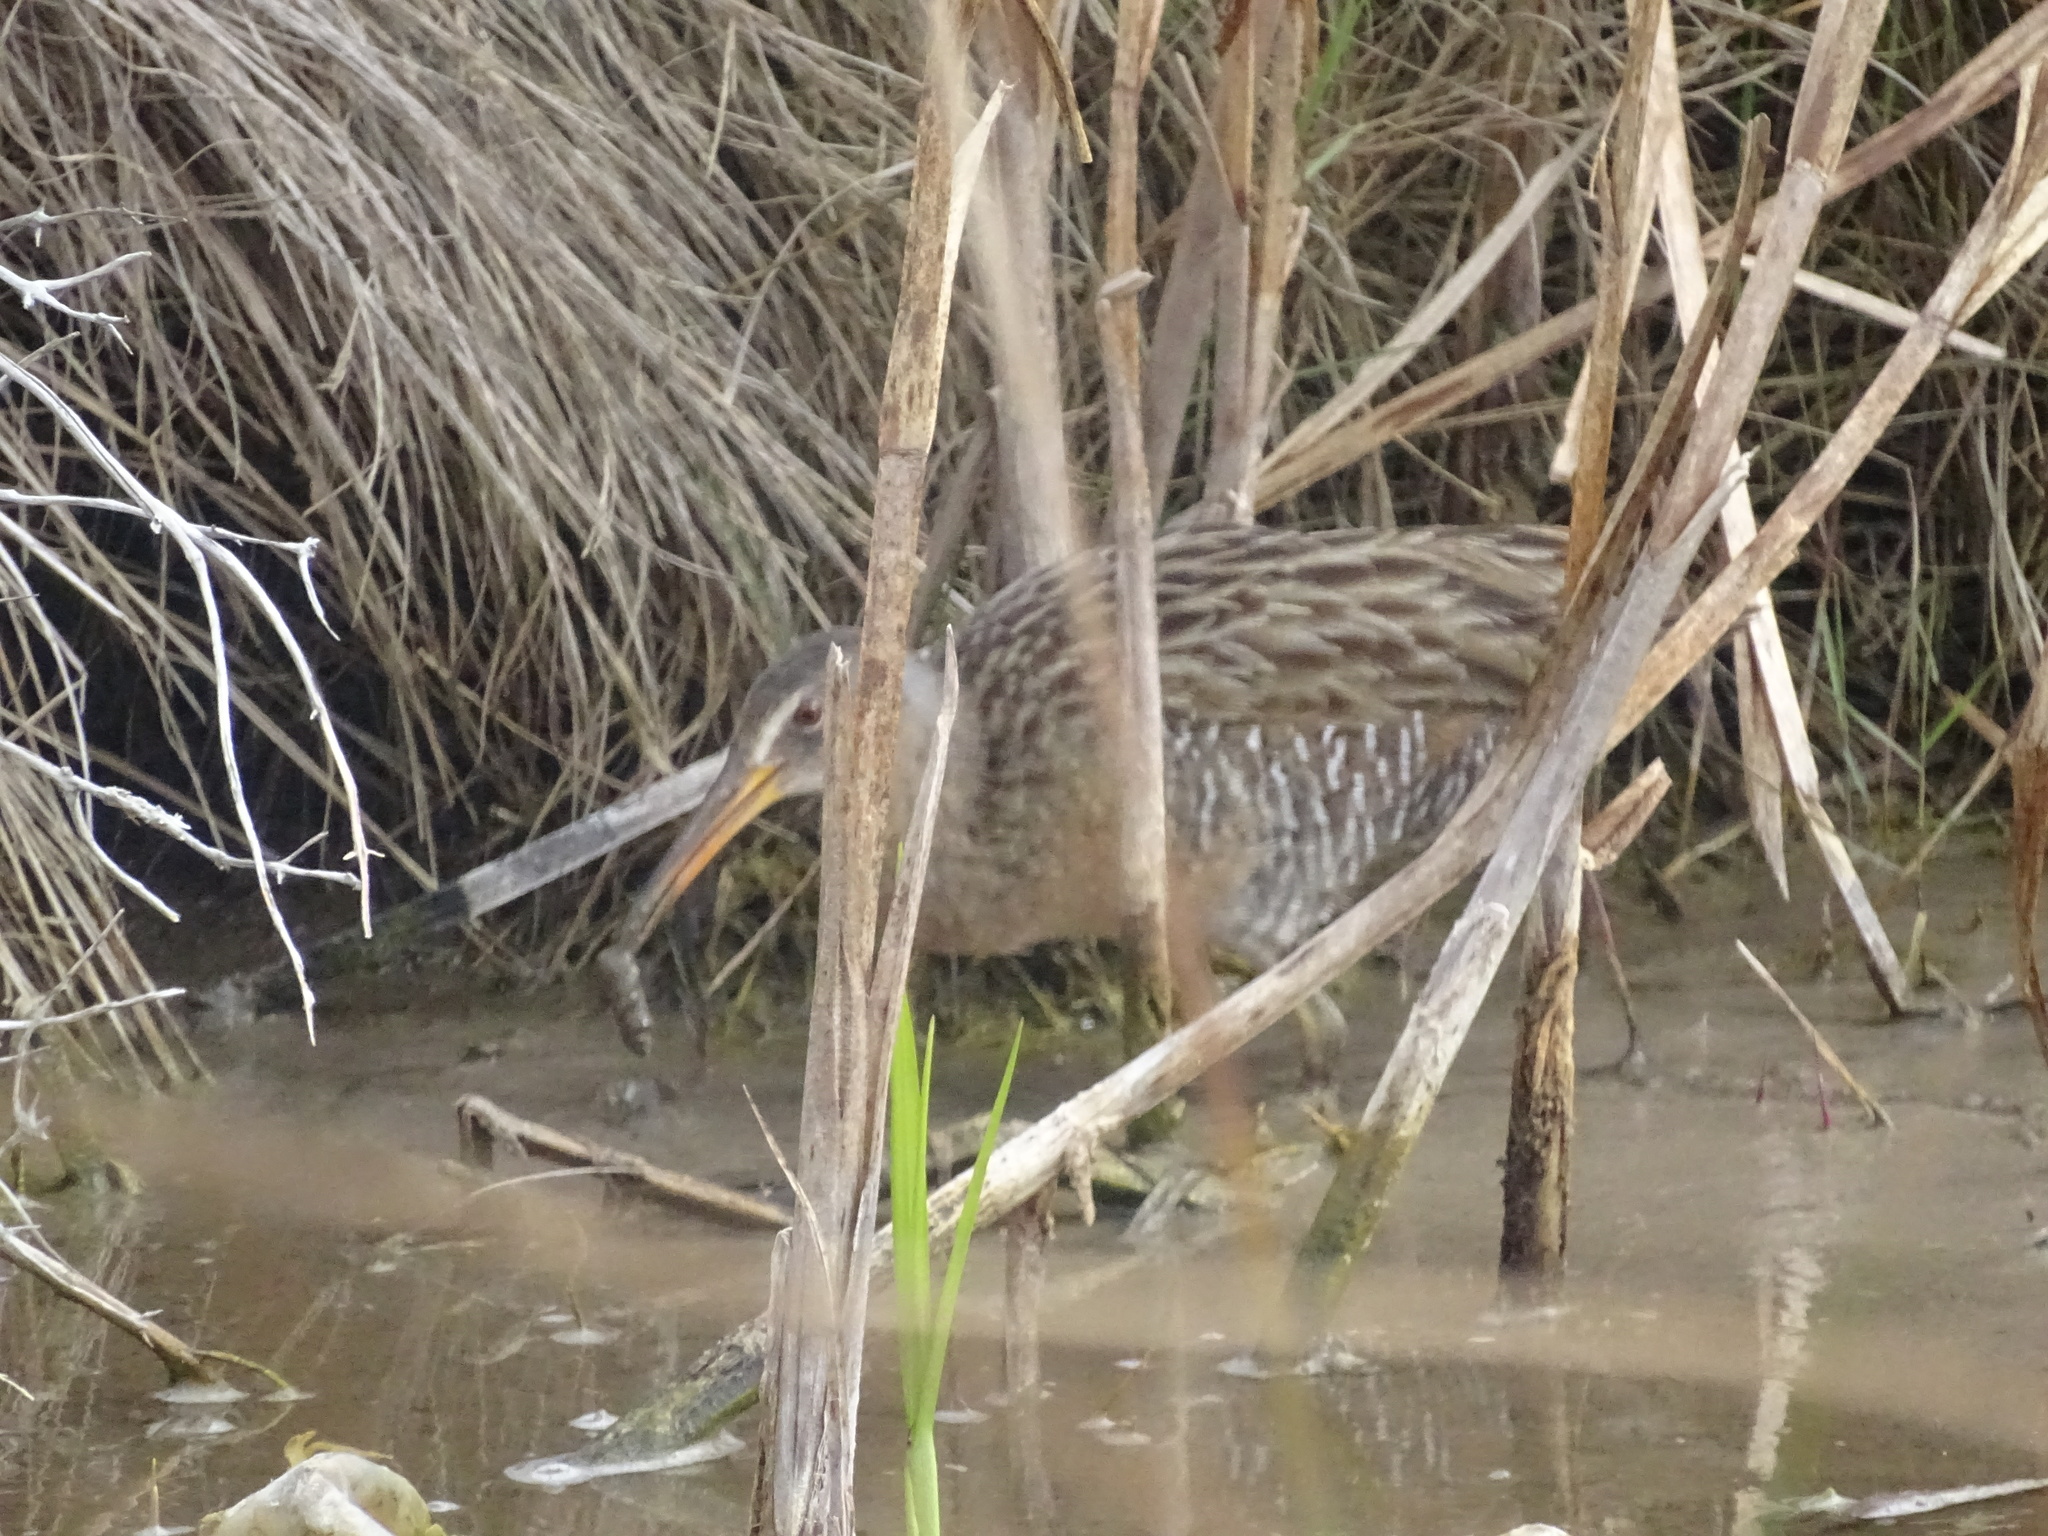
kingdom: Animalia
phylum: Chordata
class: Aves
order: Gruiformes
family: Rallidae
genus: Rallus
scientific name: Rallus crepitans
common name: Clapper rail
